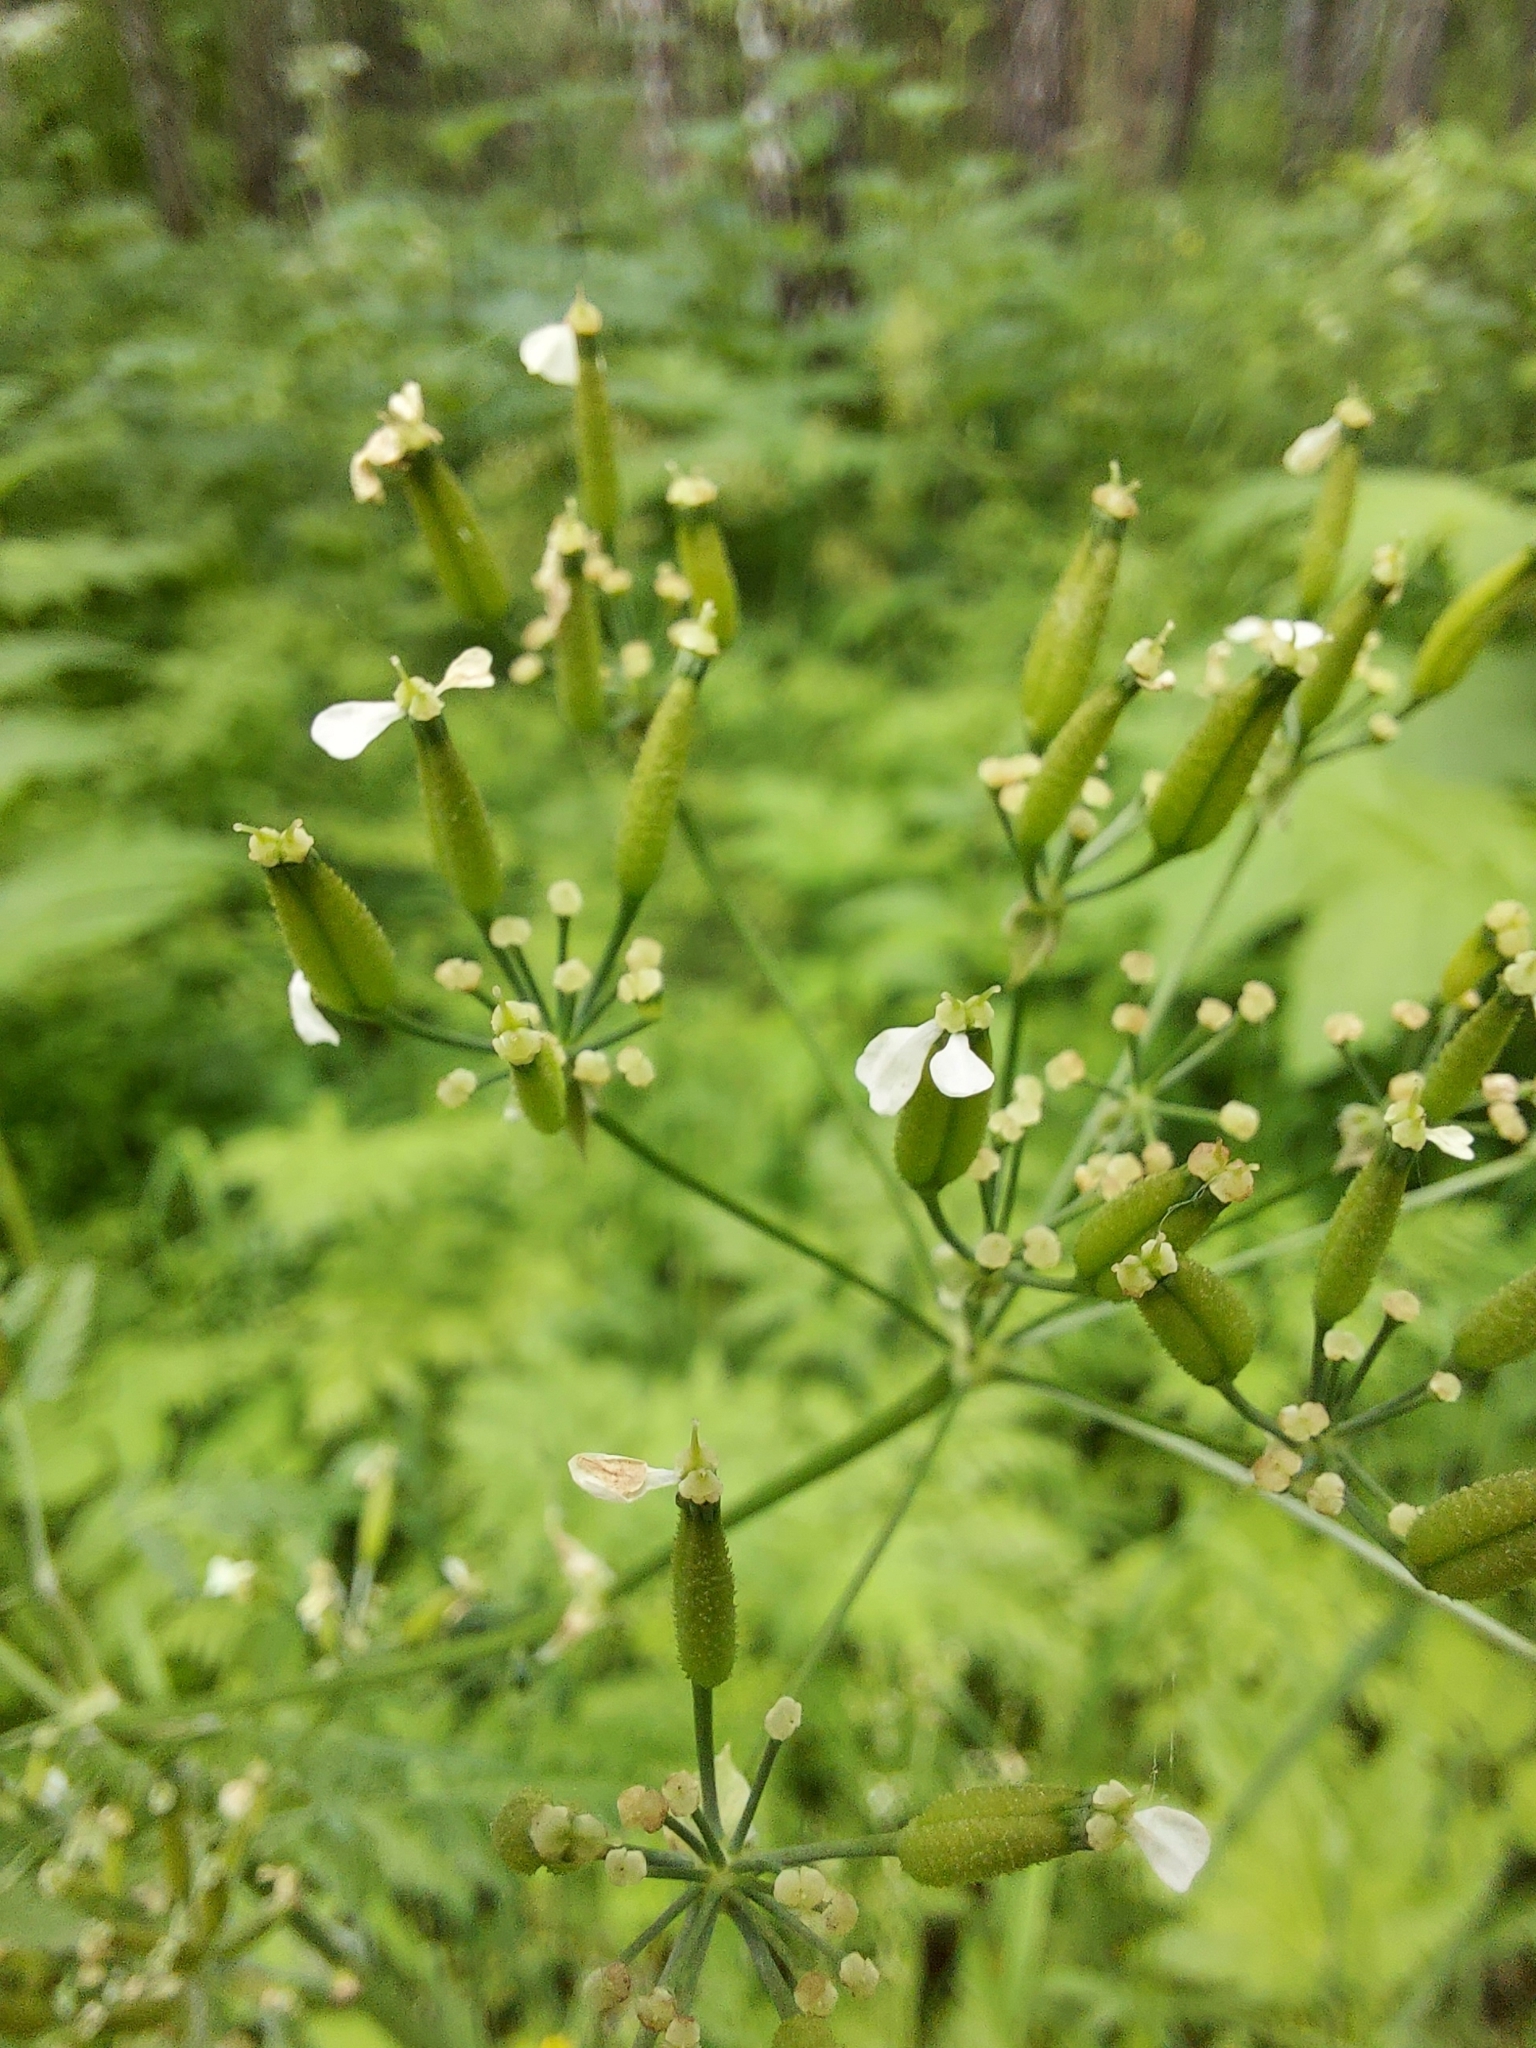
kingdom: Plantae
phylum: Tracheophyta
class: Magnoliopsida
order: Apiales
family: Apiaceae
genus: Anthriscus
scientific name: Anthriscus sylvestris
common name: Cow parsley
